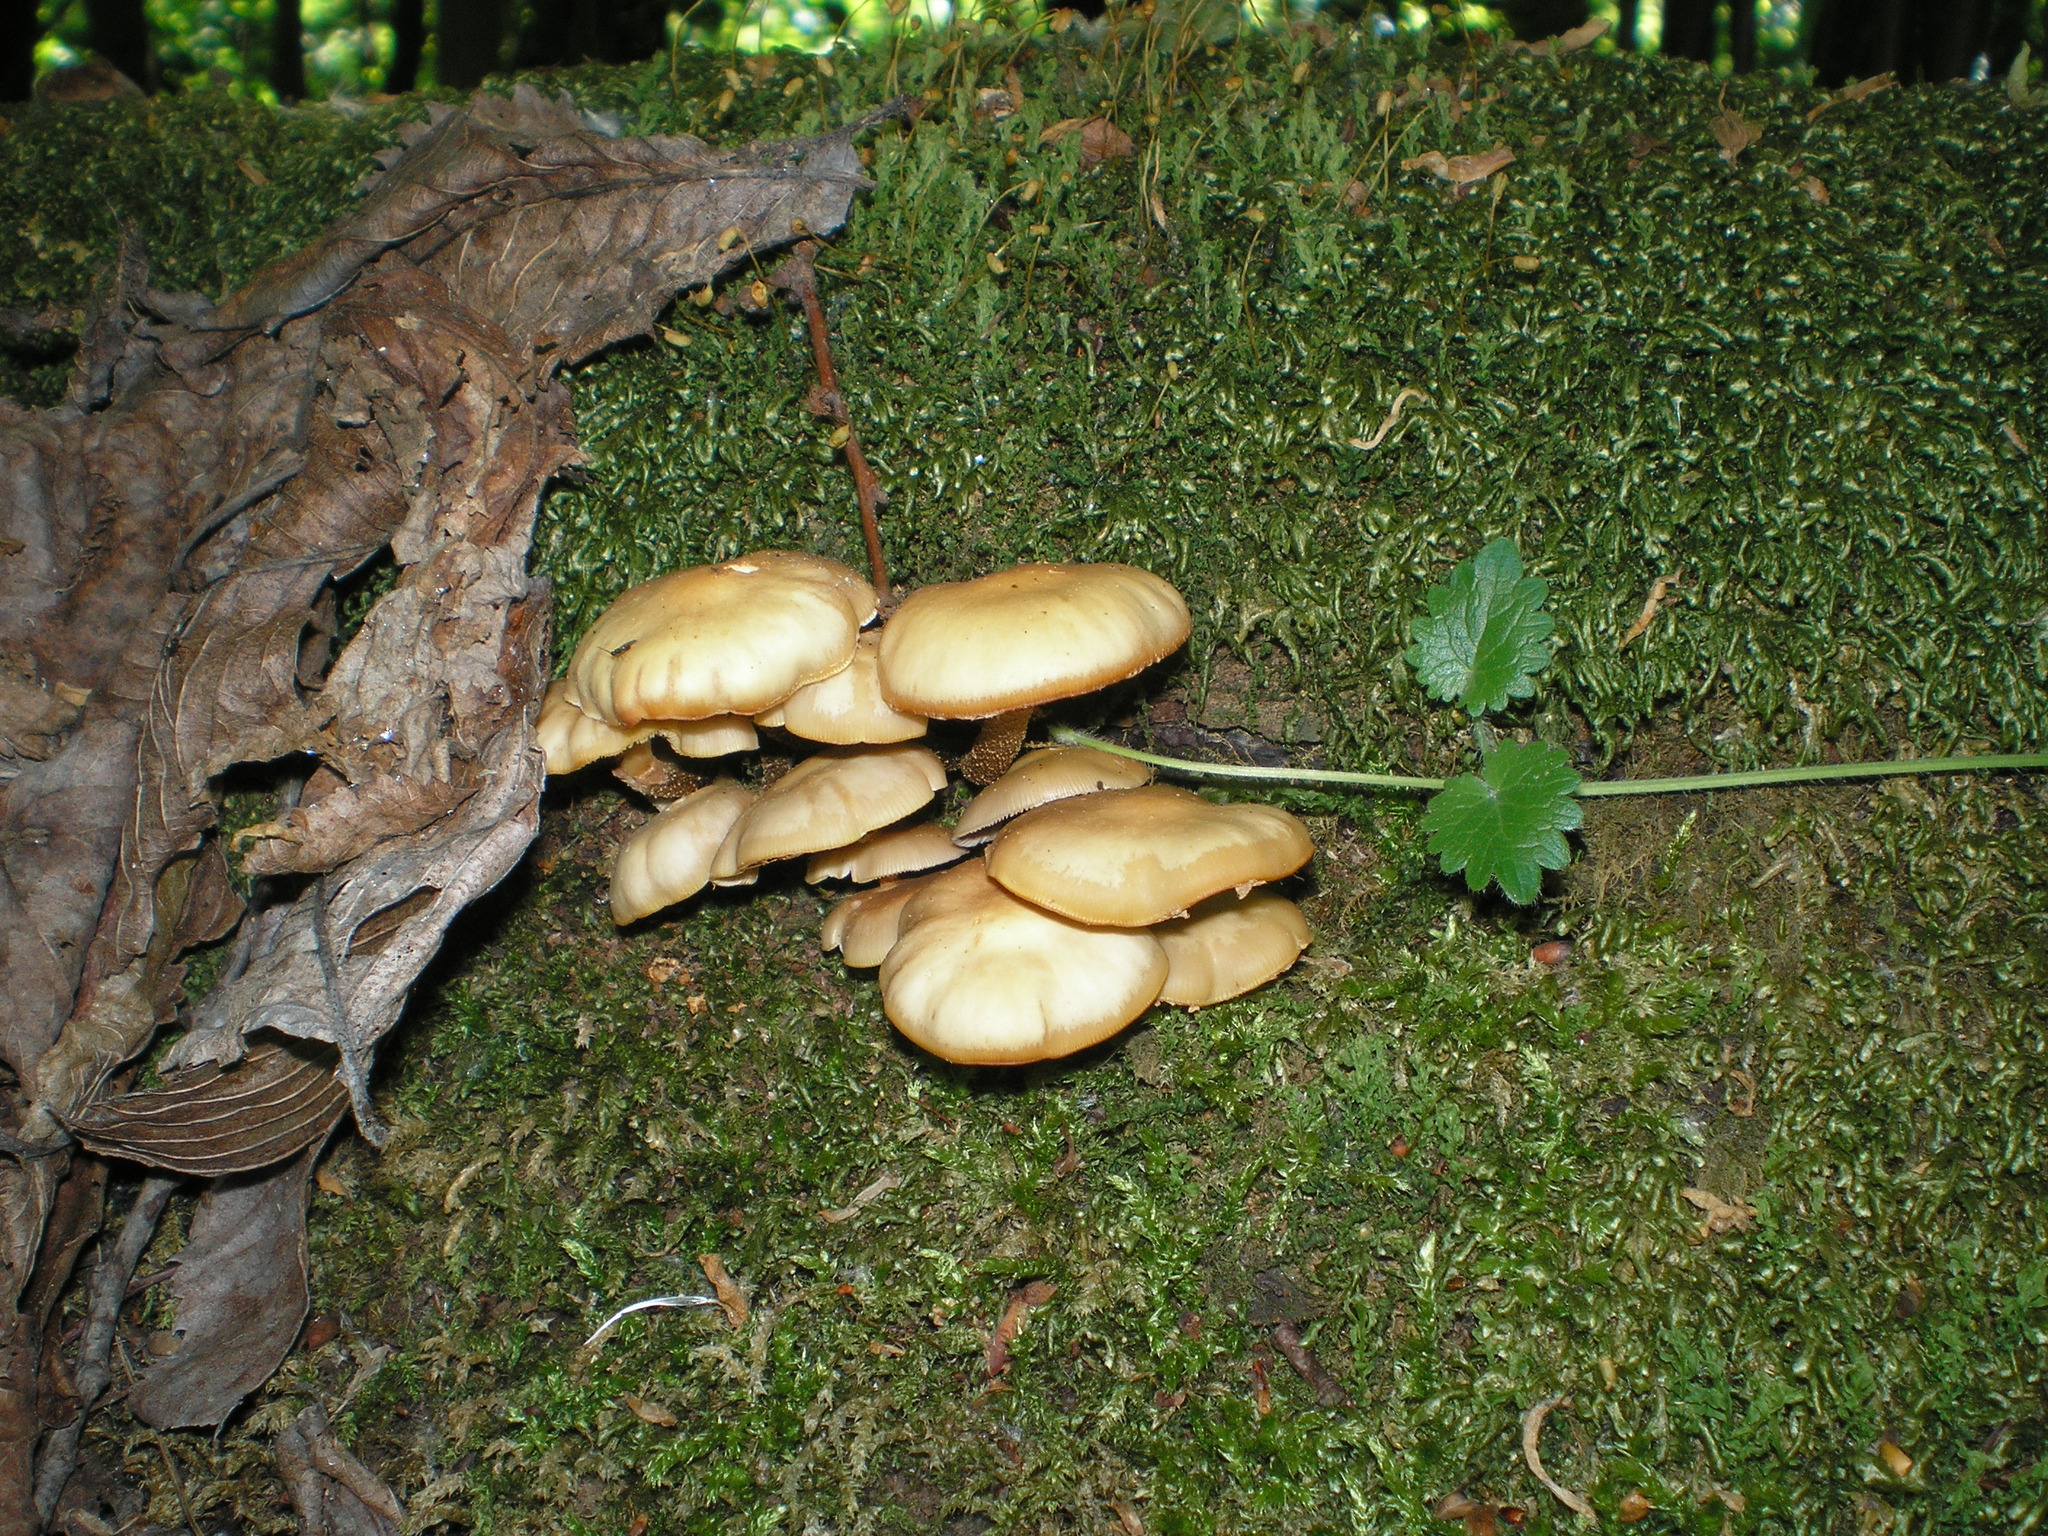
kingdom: Fungi
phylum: Basidiomycota
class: Agaricomycetes
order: Agaricales
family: Strophariaceae
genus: Kuehneromyces
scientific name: Kuehneromyces mutabilis
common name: Sheathed woodtuft
